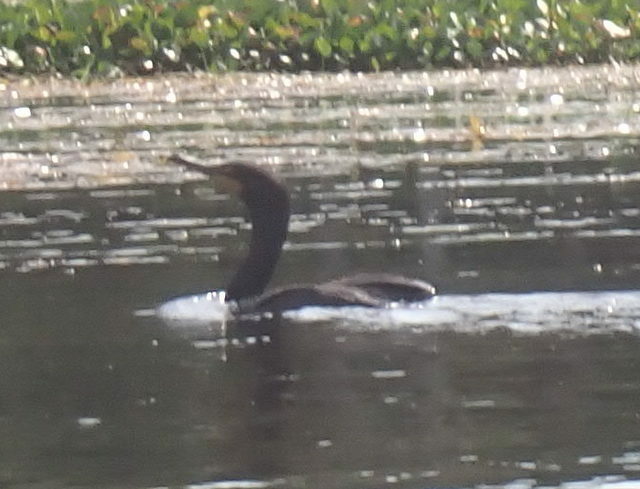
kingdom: Animalia
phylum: Chordata
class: Aves
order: Suliformes
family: Phalacrocoracidae
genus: Phalacrocorax
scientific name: Phalacrocorax auritus
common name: Double-crested cormorant
